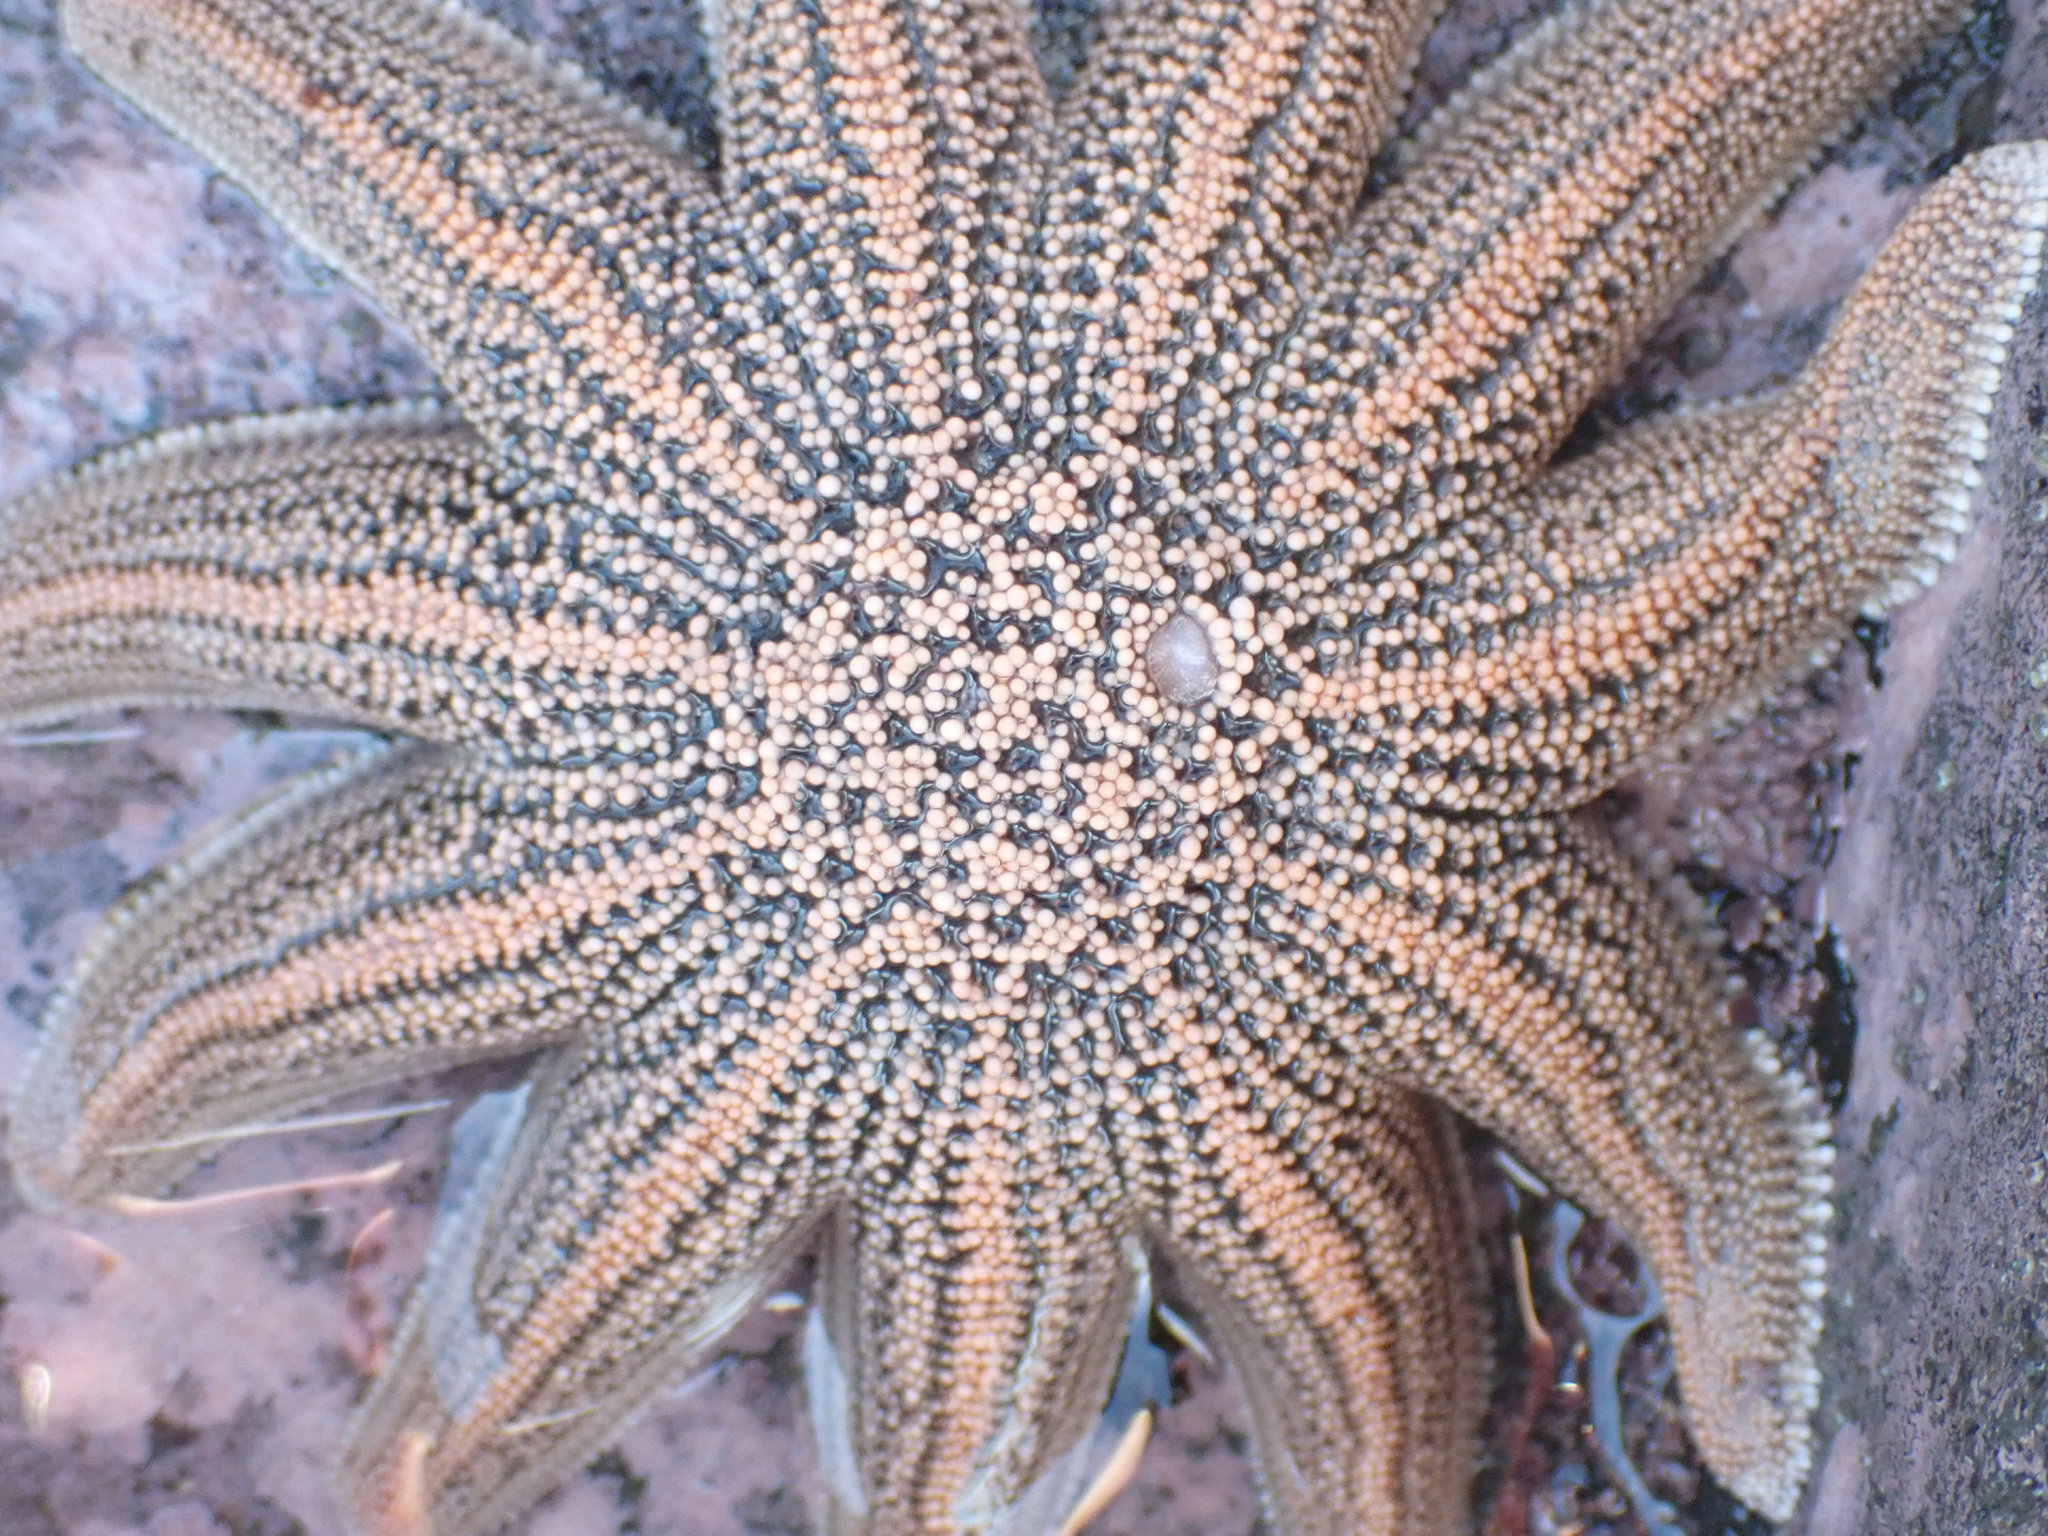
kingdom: Animalia
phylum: Echinodermata
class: Asteroidea
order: Forcipulatida
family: Stichasteridae
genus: Stichaster
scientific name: Stichaster australis
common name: Reef starfish
